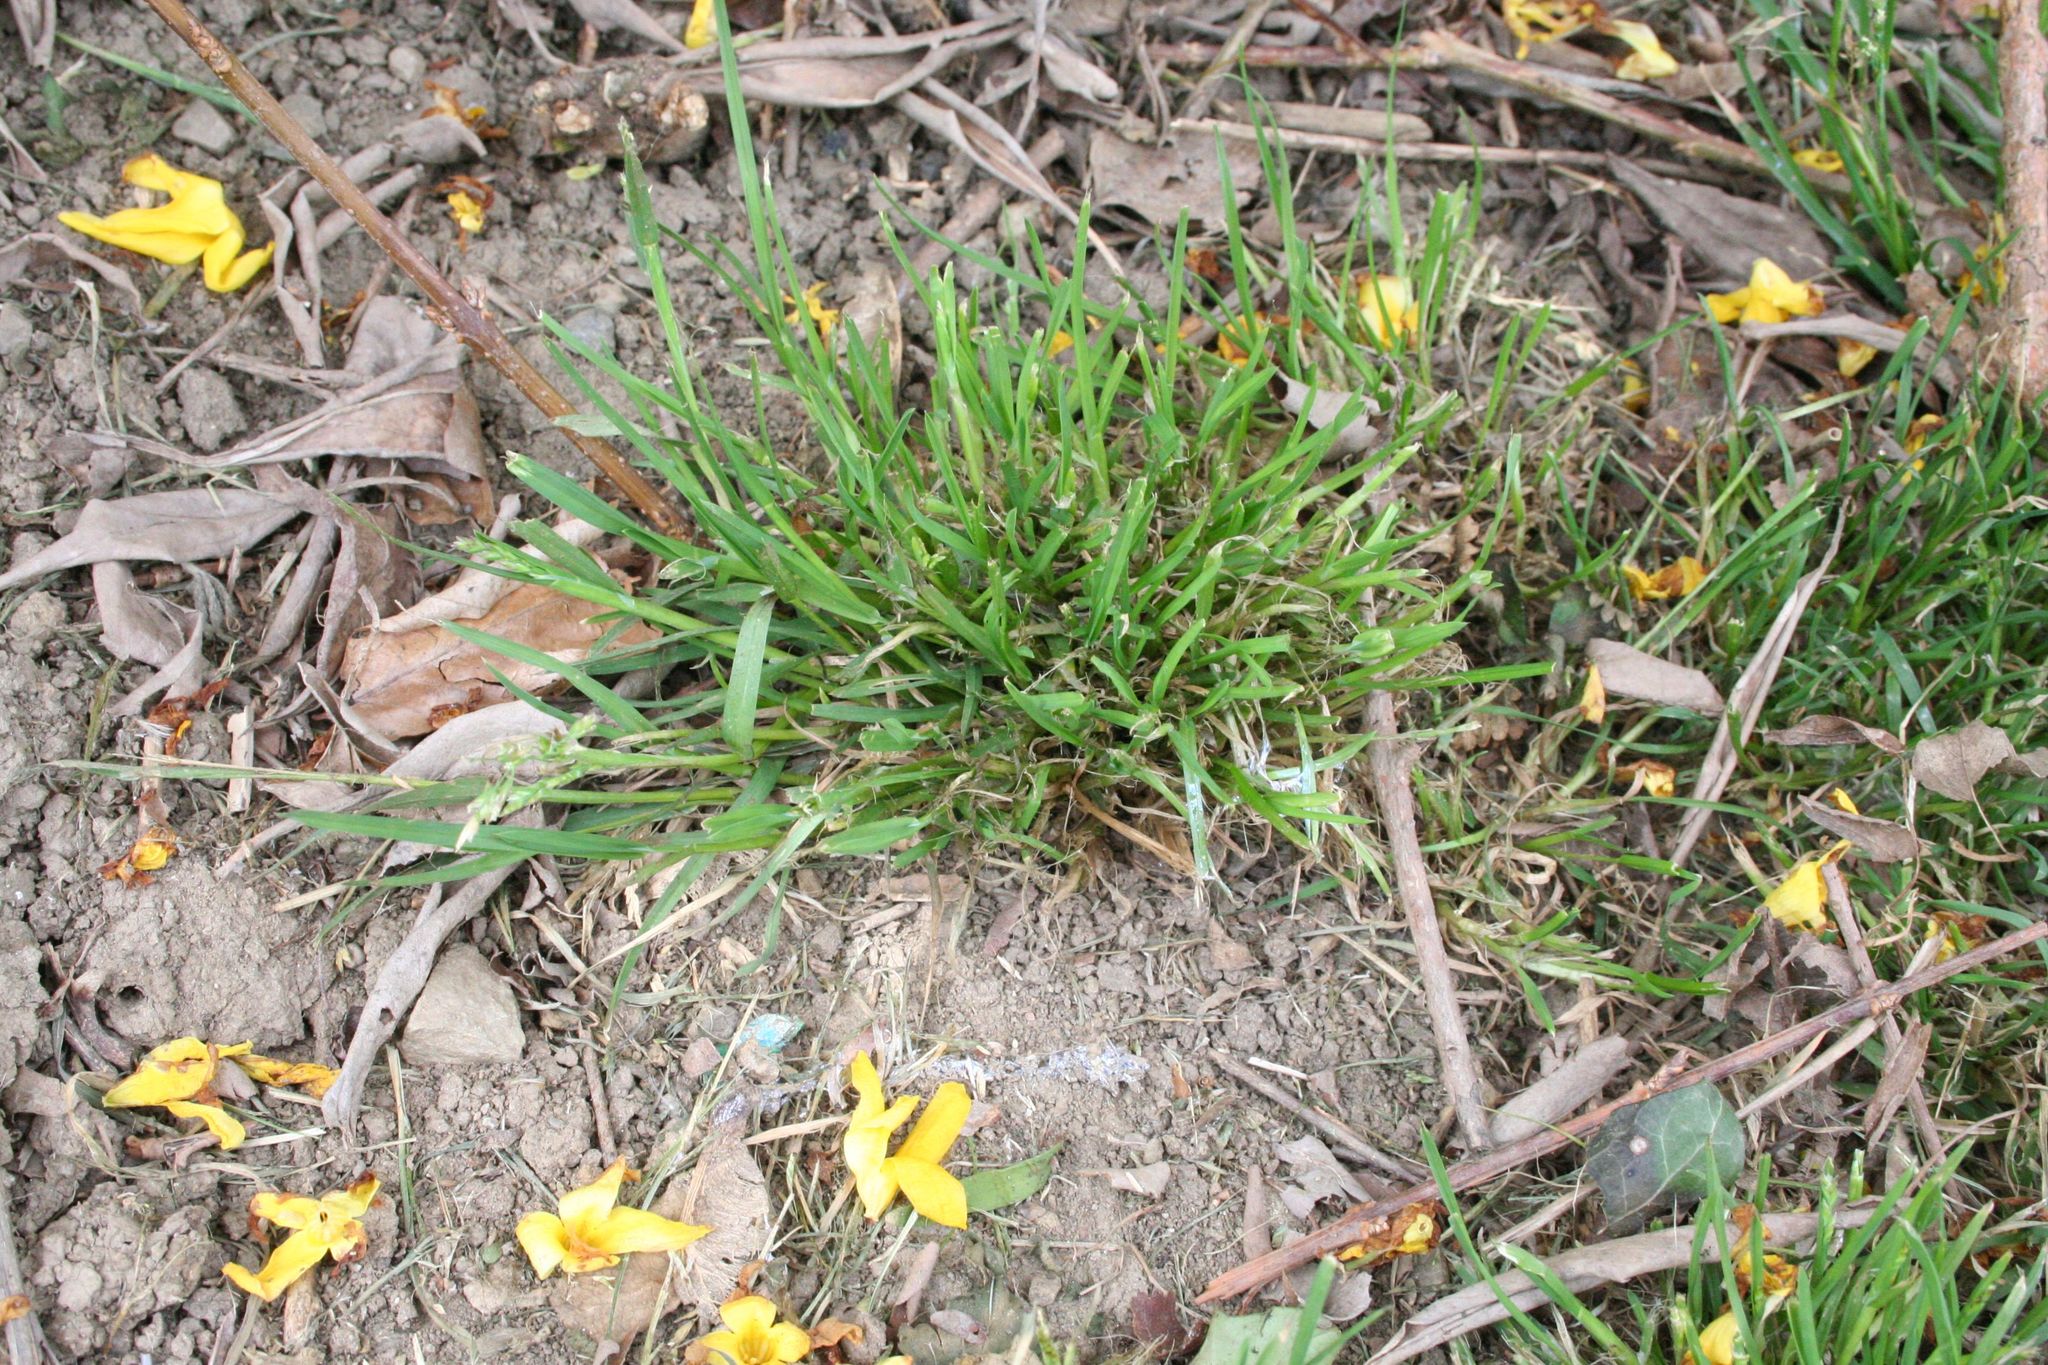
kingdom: Plantae
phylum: Tracheophyta
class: Liliopsida
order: Poales
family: Poaceae
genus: Poa
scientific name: Poa annua
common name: Annual bluegrass
